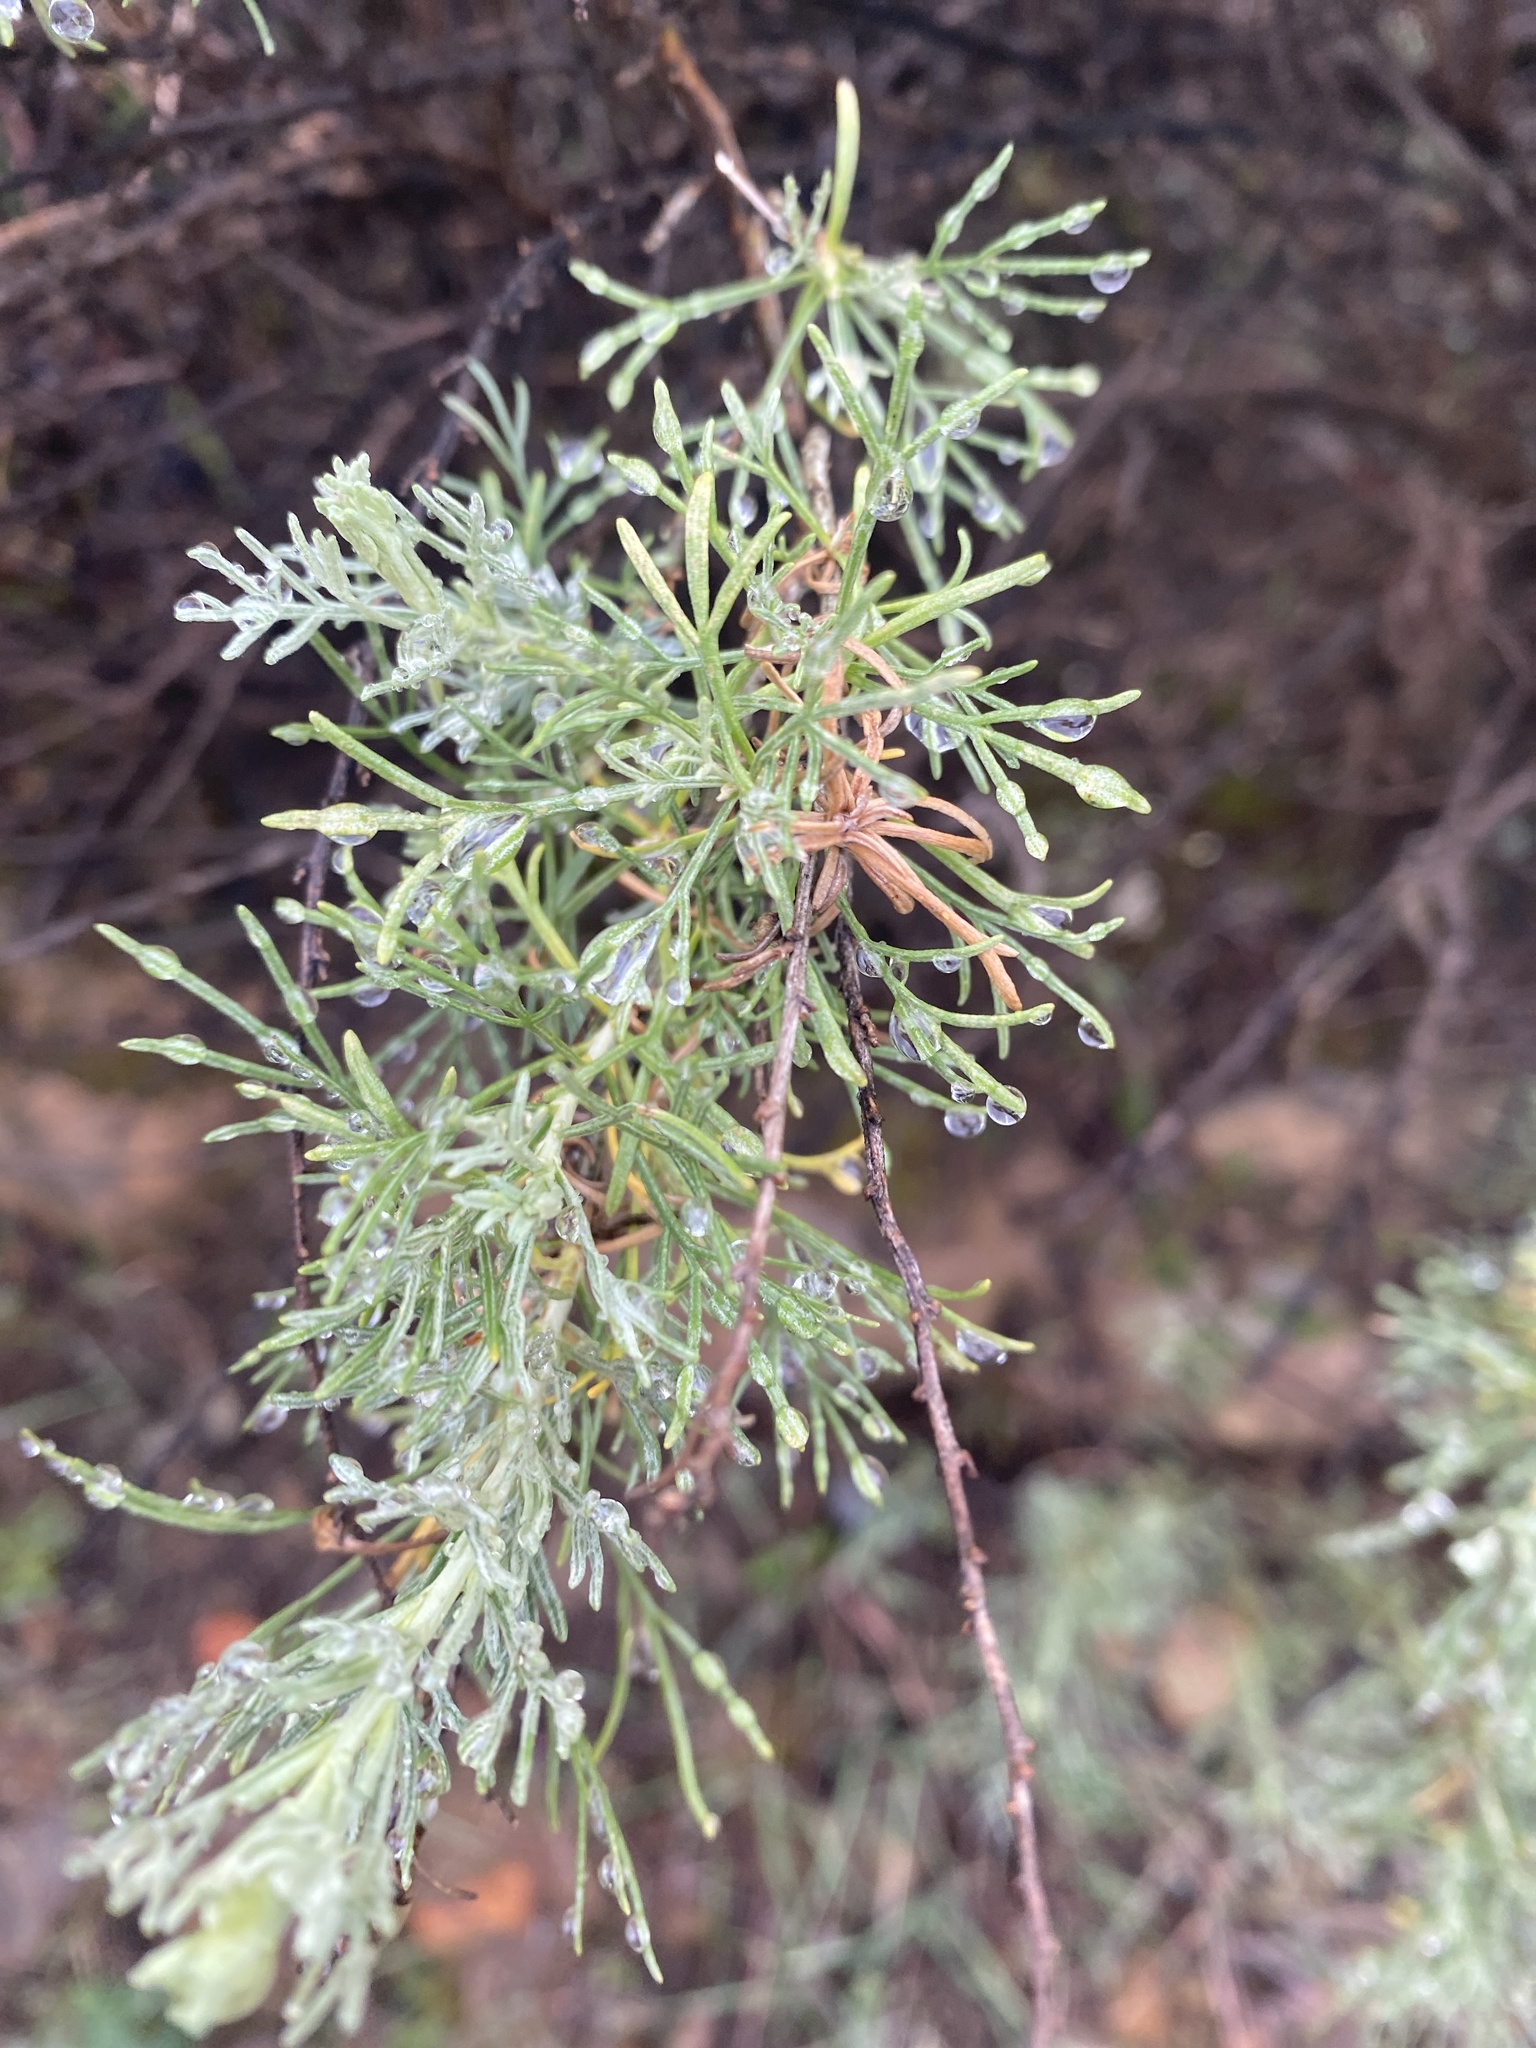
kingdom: Plantae
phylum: Tracheophyta
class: Magnoliopsida
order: Asterales
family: Asteraceae
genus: Artemisia
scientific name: Artemisia californica
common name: California sagebrush
